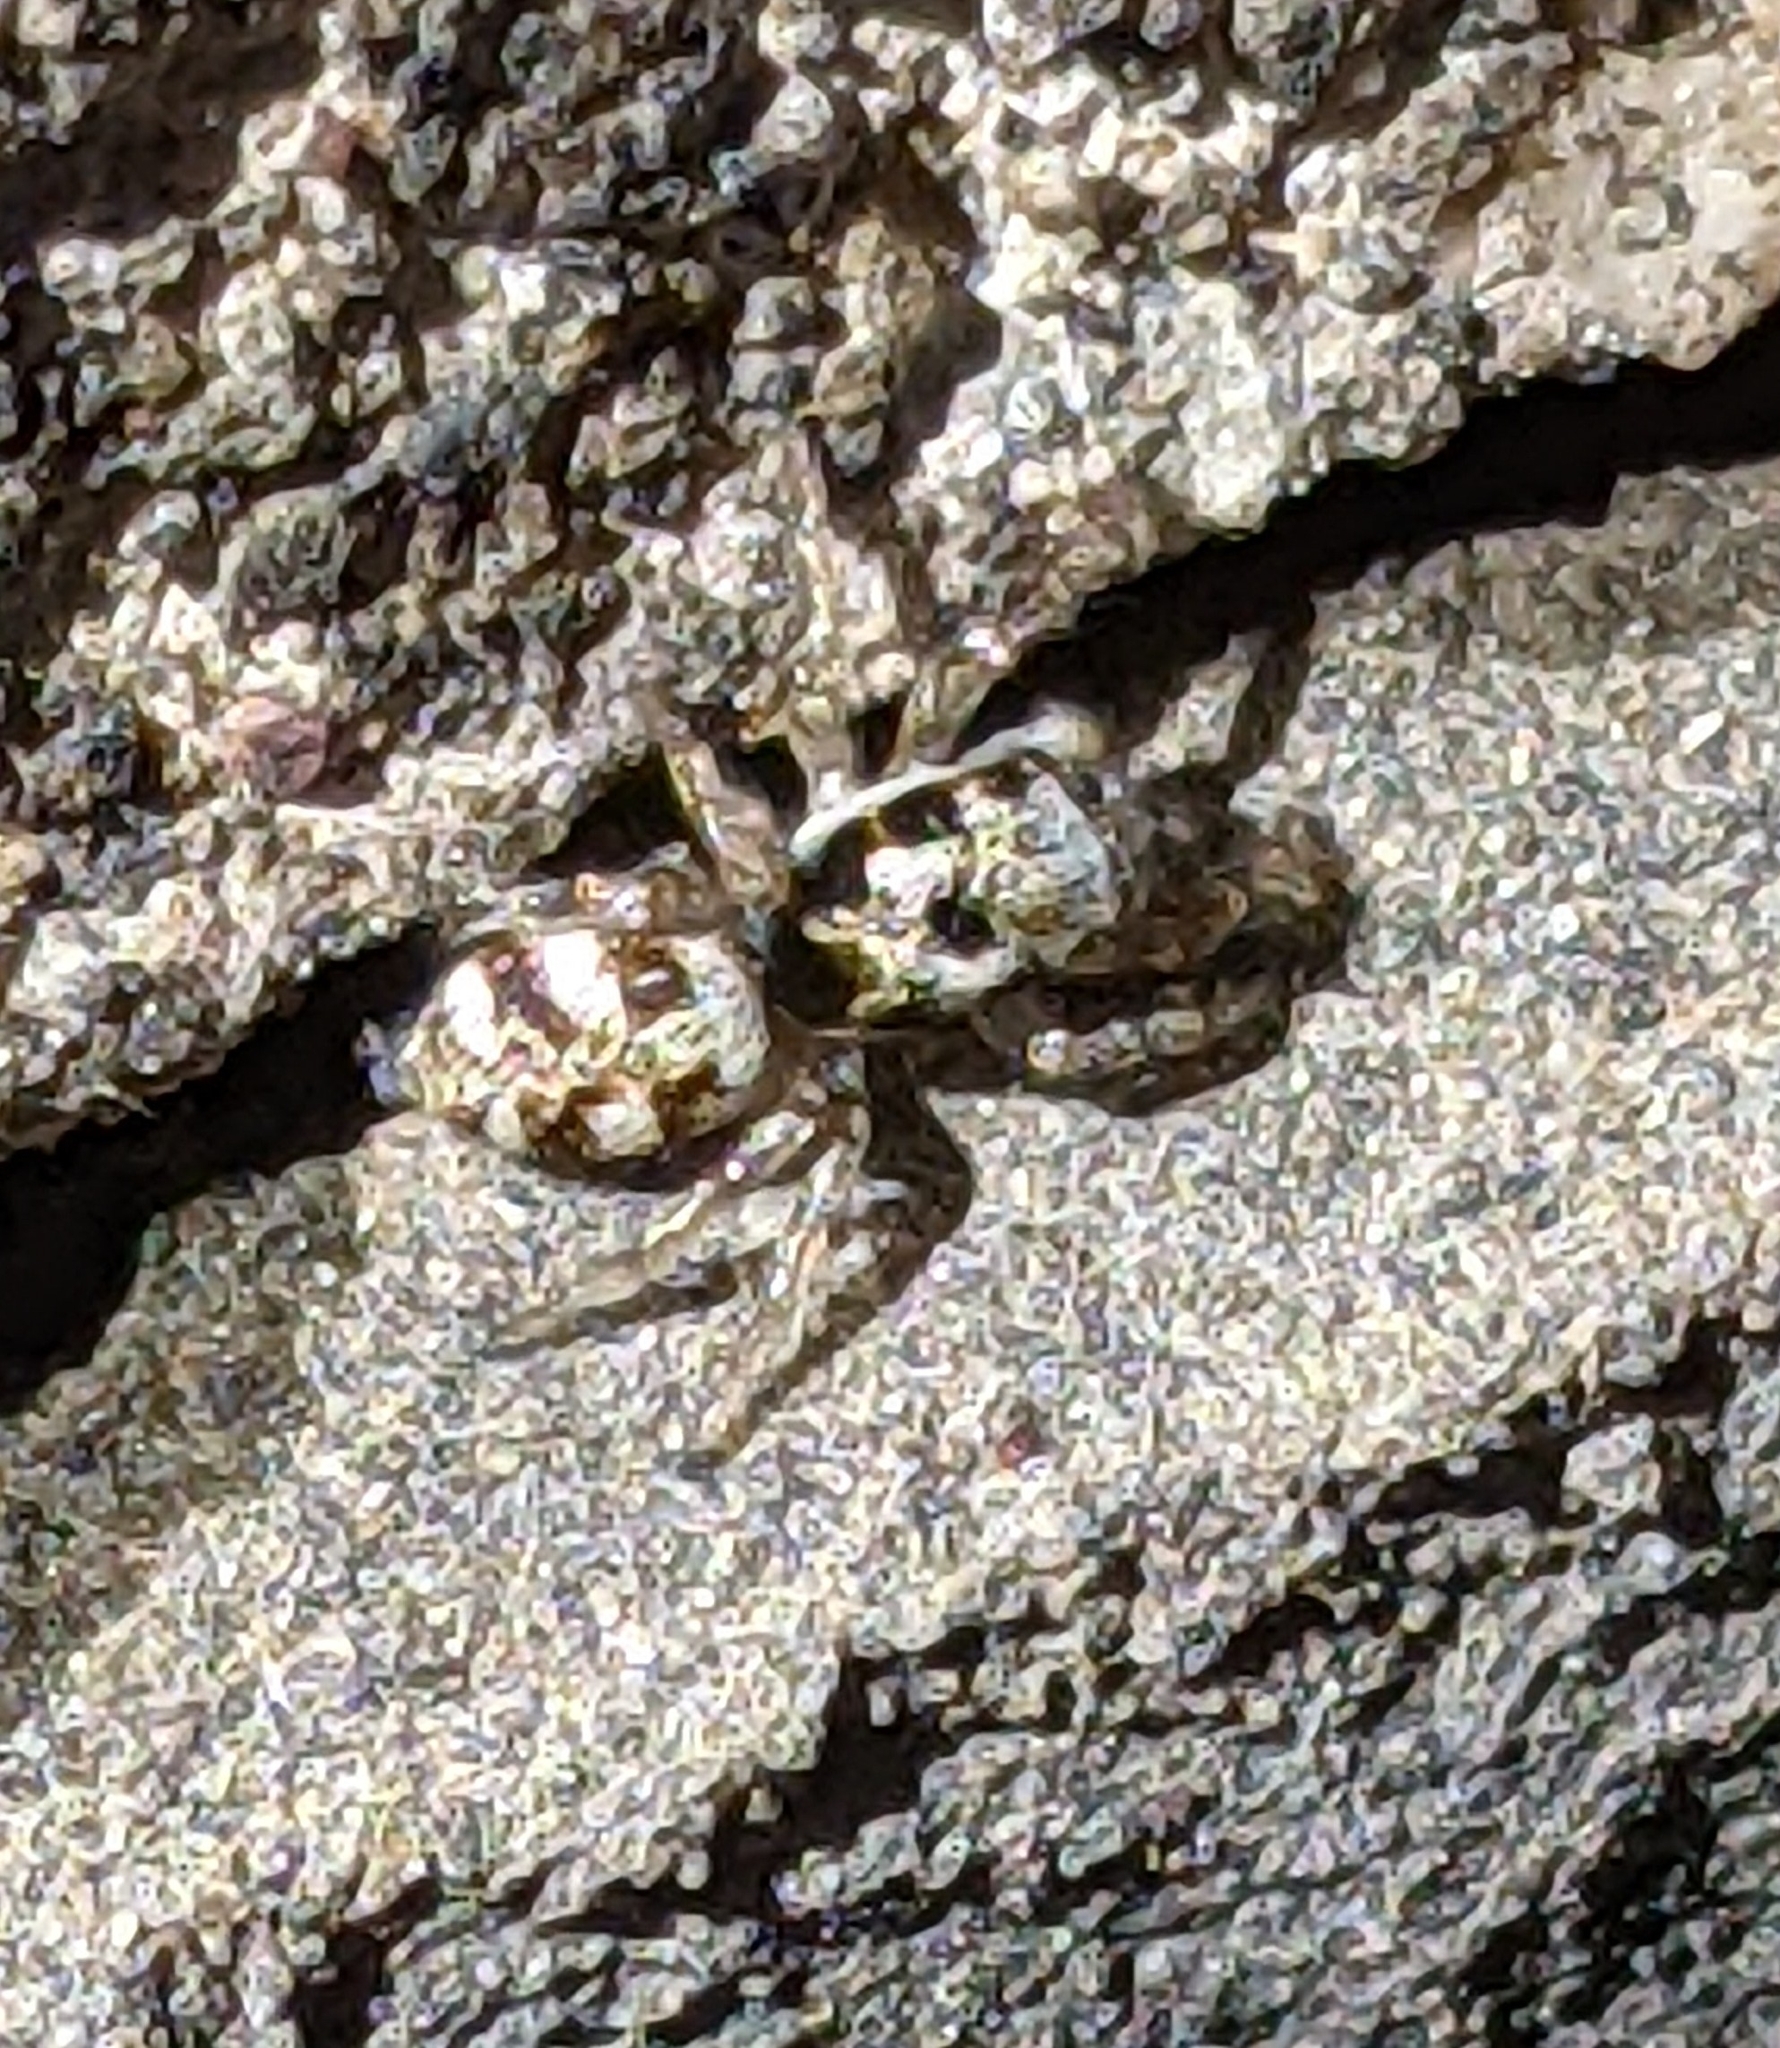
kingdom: Animalia
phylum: Arthropoda
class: Arachnida
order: Araneae
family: Salticidae
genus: Salticus
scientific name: Salticus scenicus
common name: Zebra jumper
